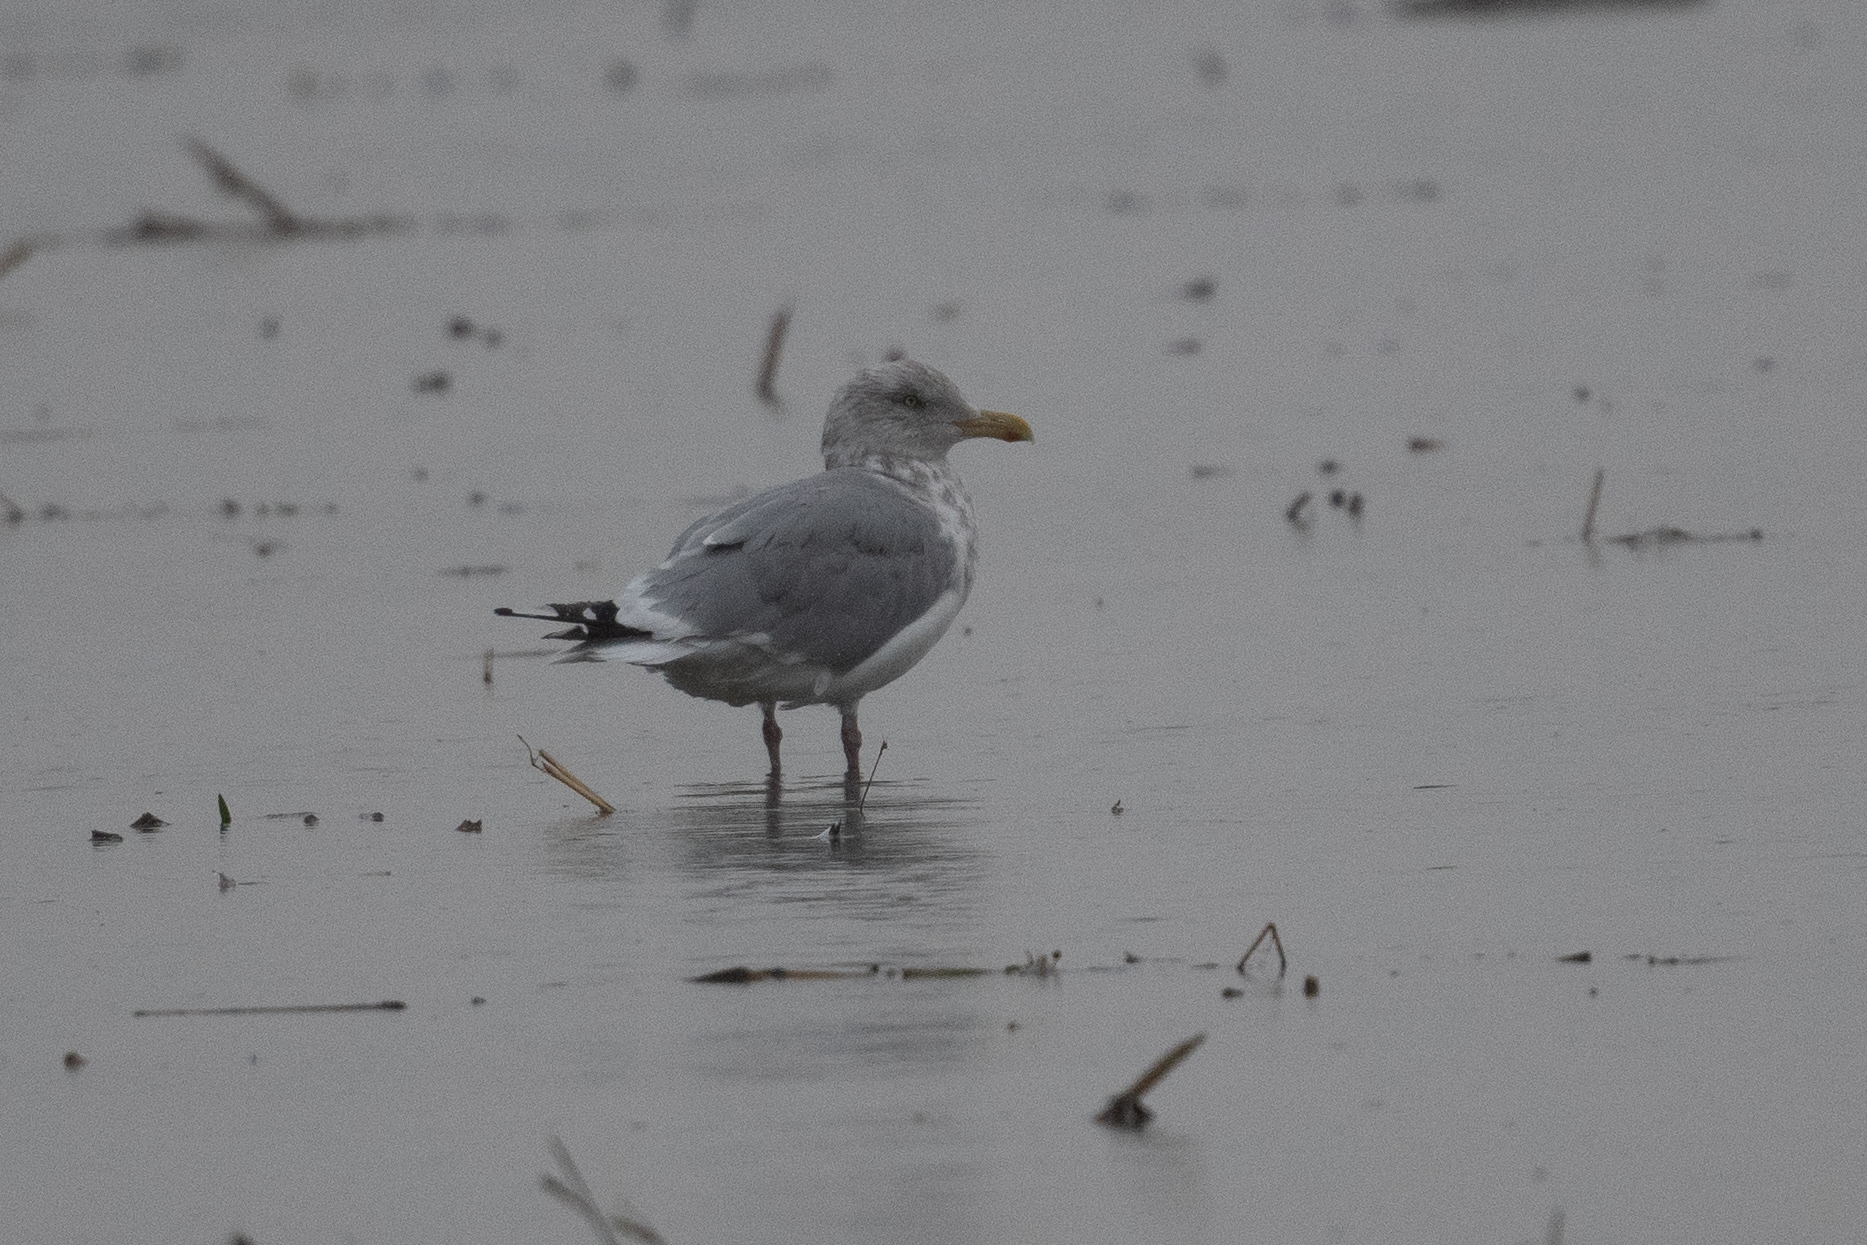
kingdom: Animalia
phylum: Chordata
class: Aves
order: Charadriiformes
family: Laridae
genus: Larus
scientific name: Larus argentatus
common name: Herring gull
